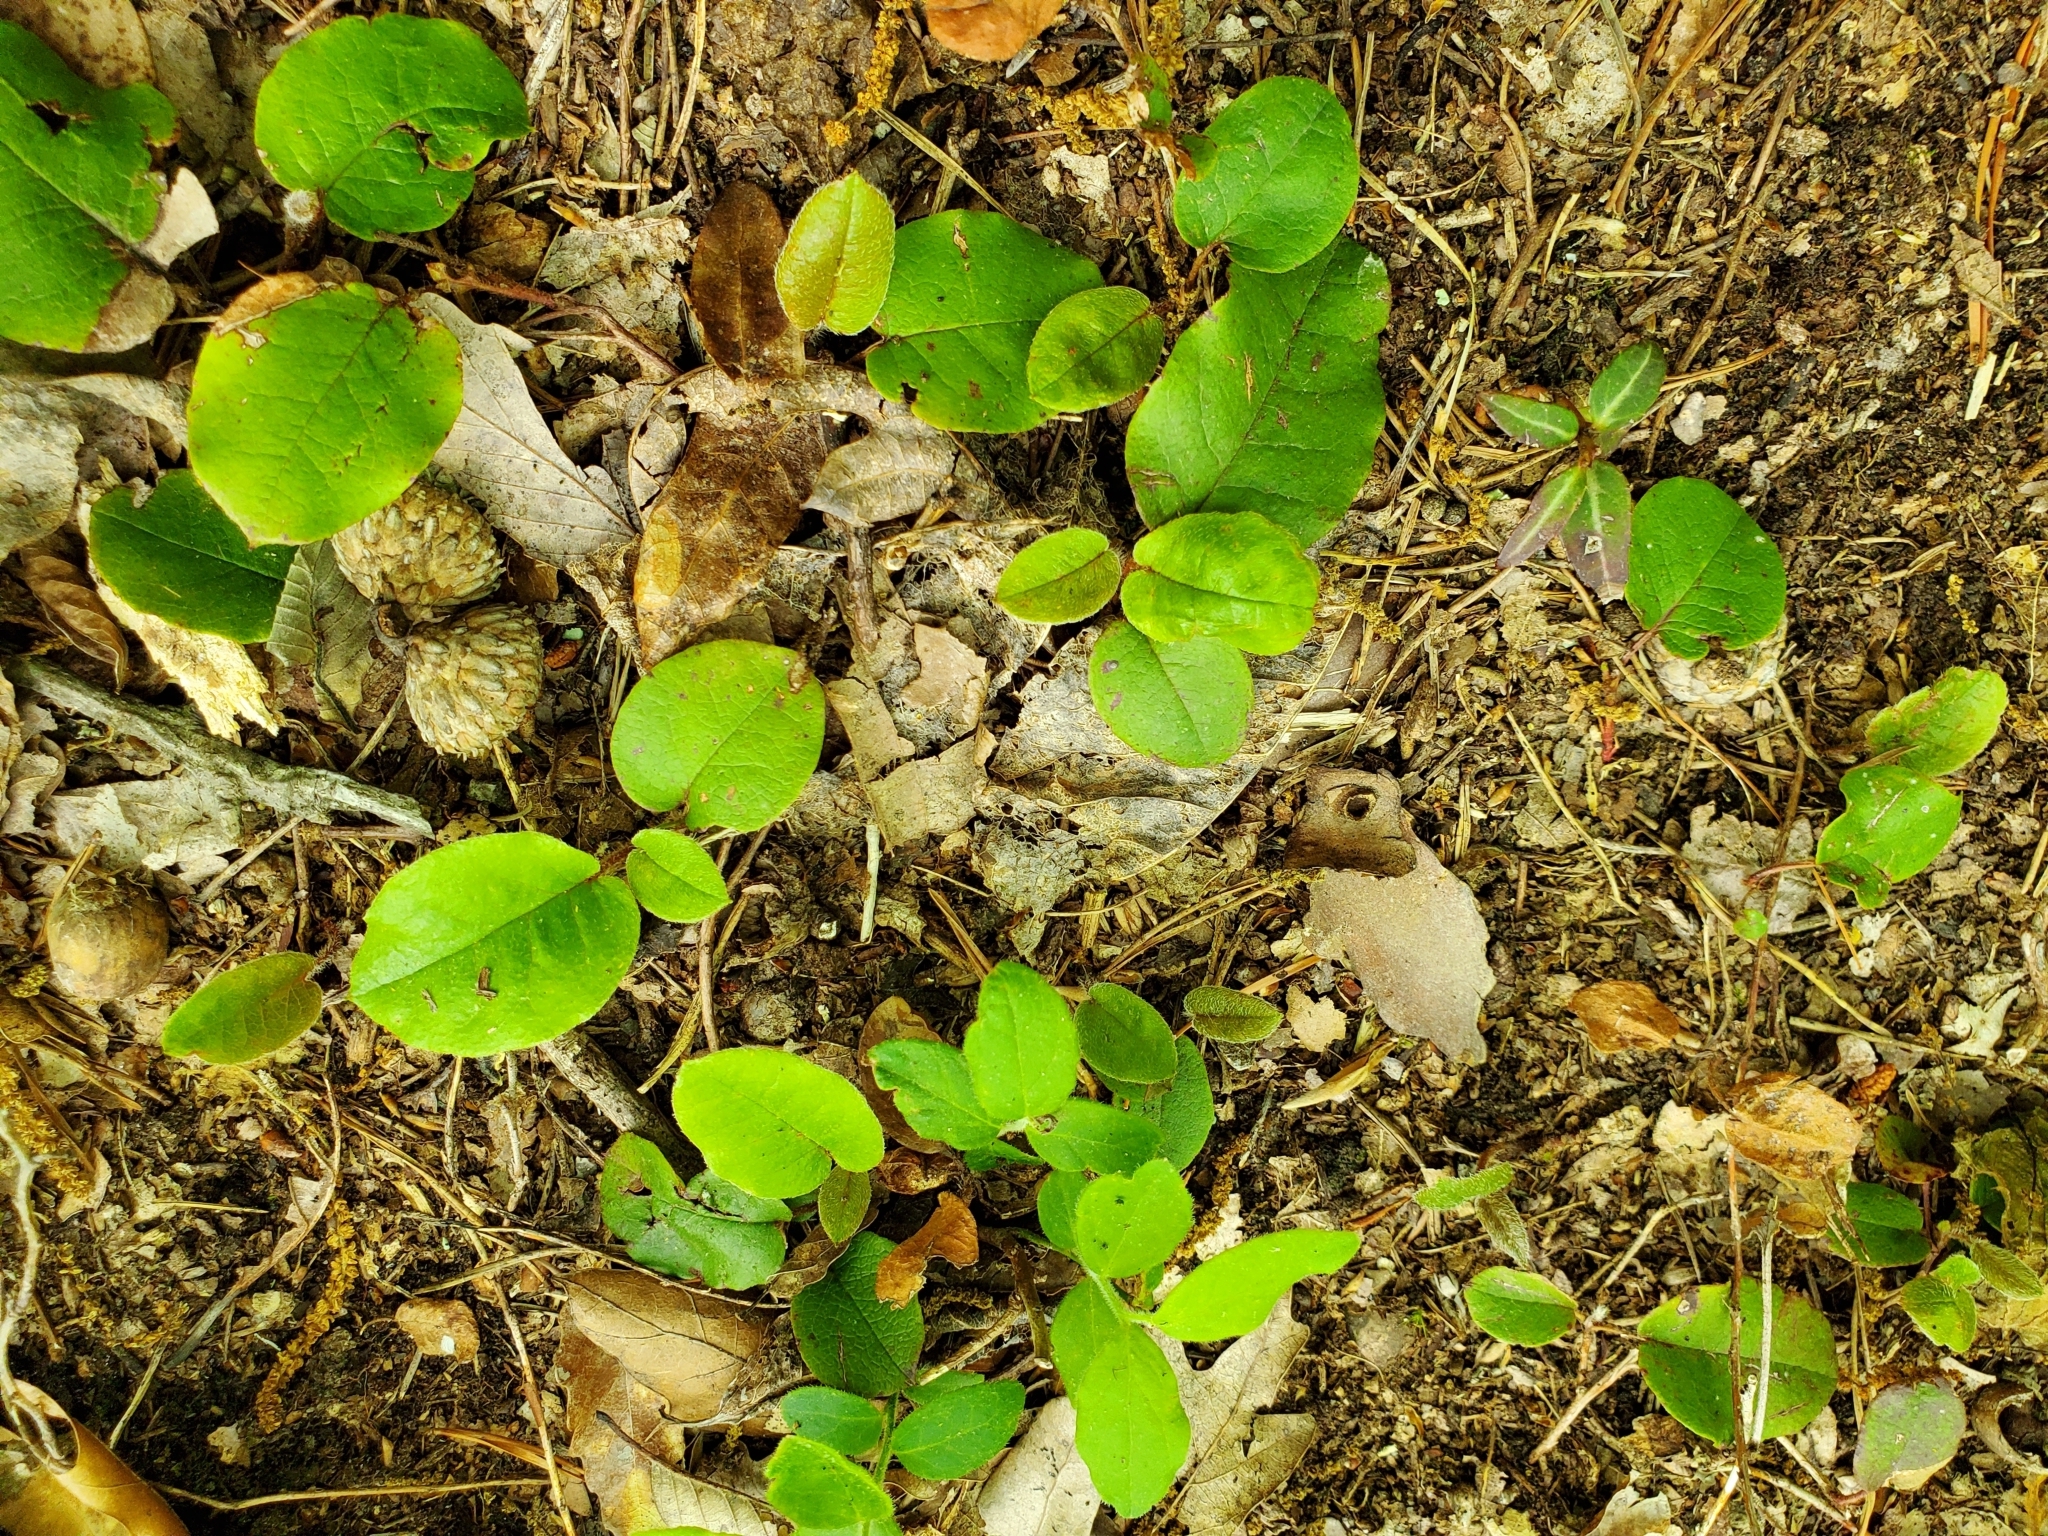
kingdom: Plantae
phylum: Tracheophyta
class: Magnoliopsida
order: Ericales
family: Ericaceae
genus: Epigaea
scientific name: Epigaea repens
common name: Gravelroot
